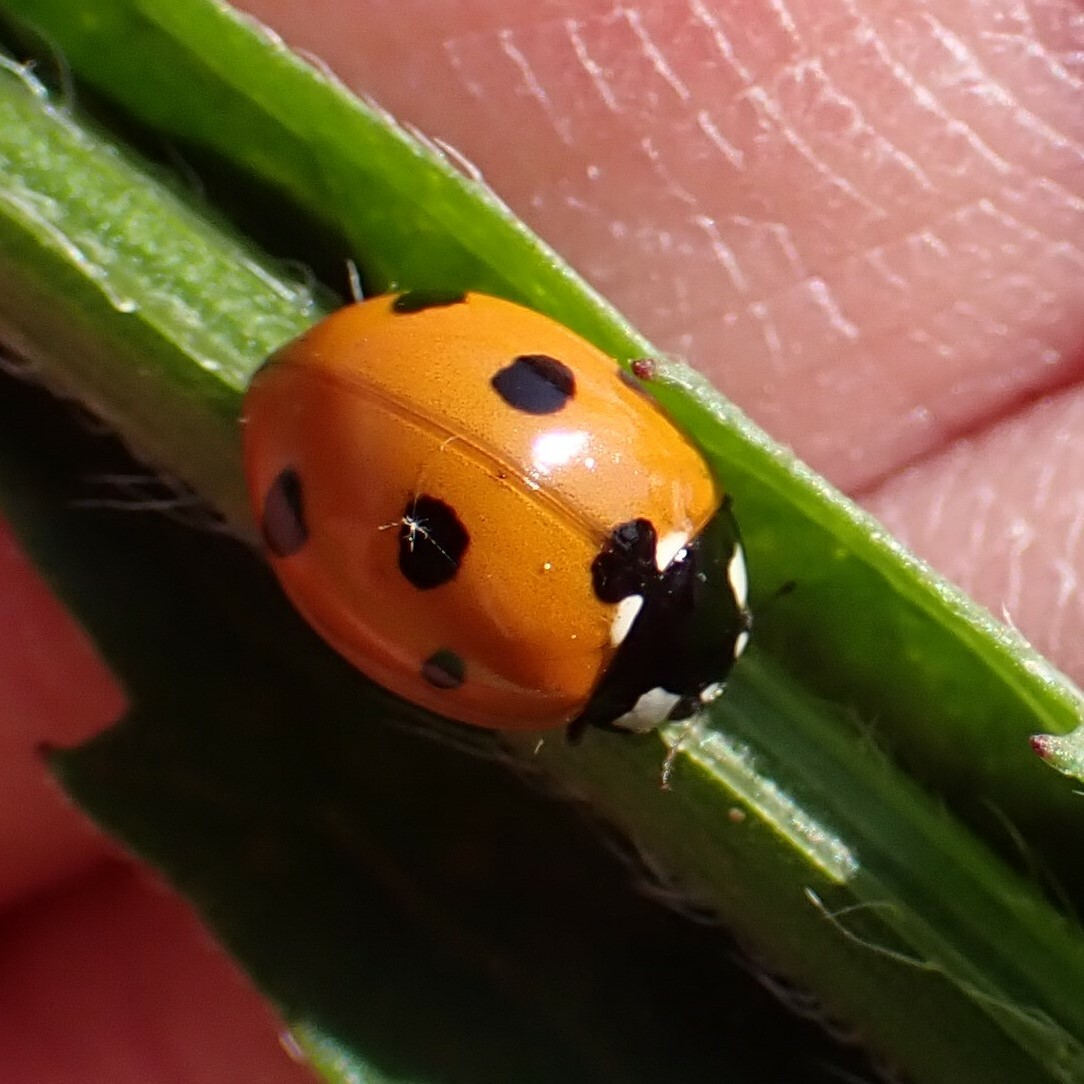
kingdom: Animalia
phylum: Arthropoda
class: Insecta
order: Coleoptera
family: Coccinellidae
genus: Coccinella
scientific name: Coccinella septempunctata
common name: Sevenspotted lady beetle
